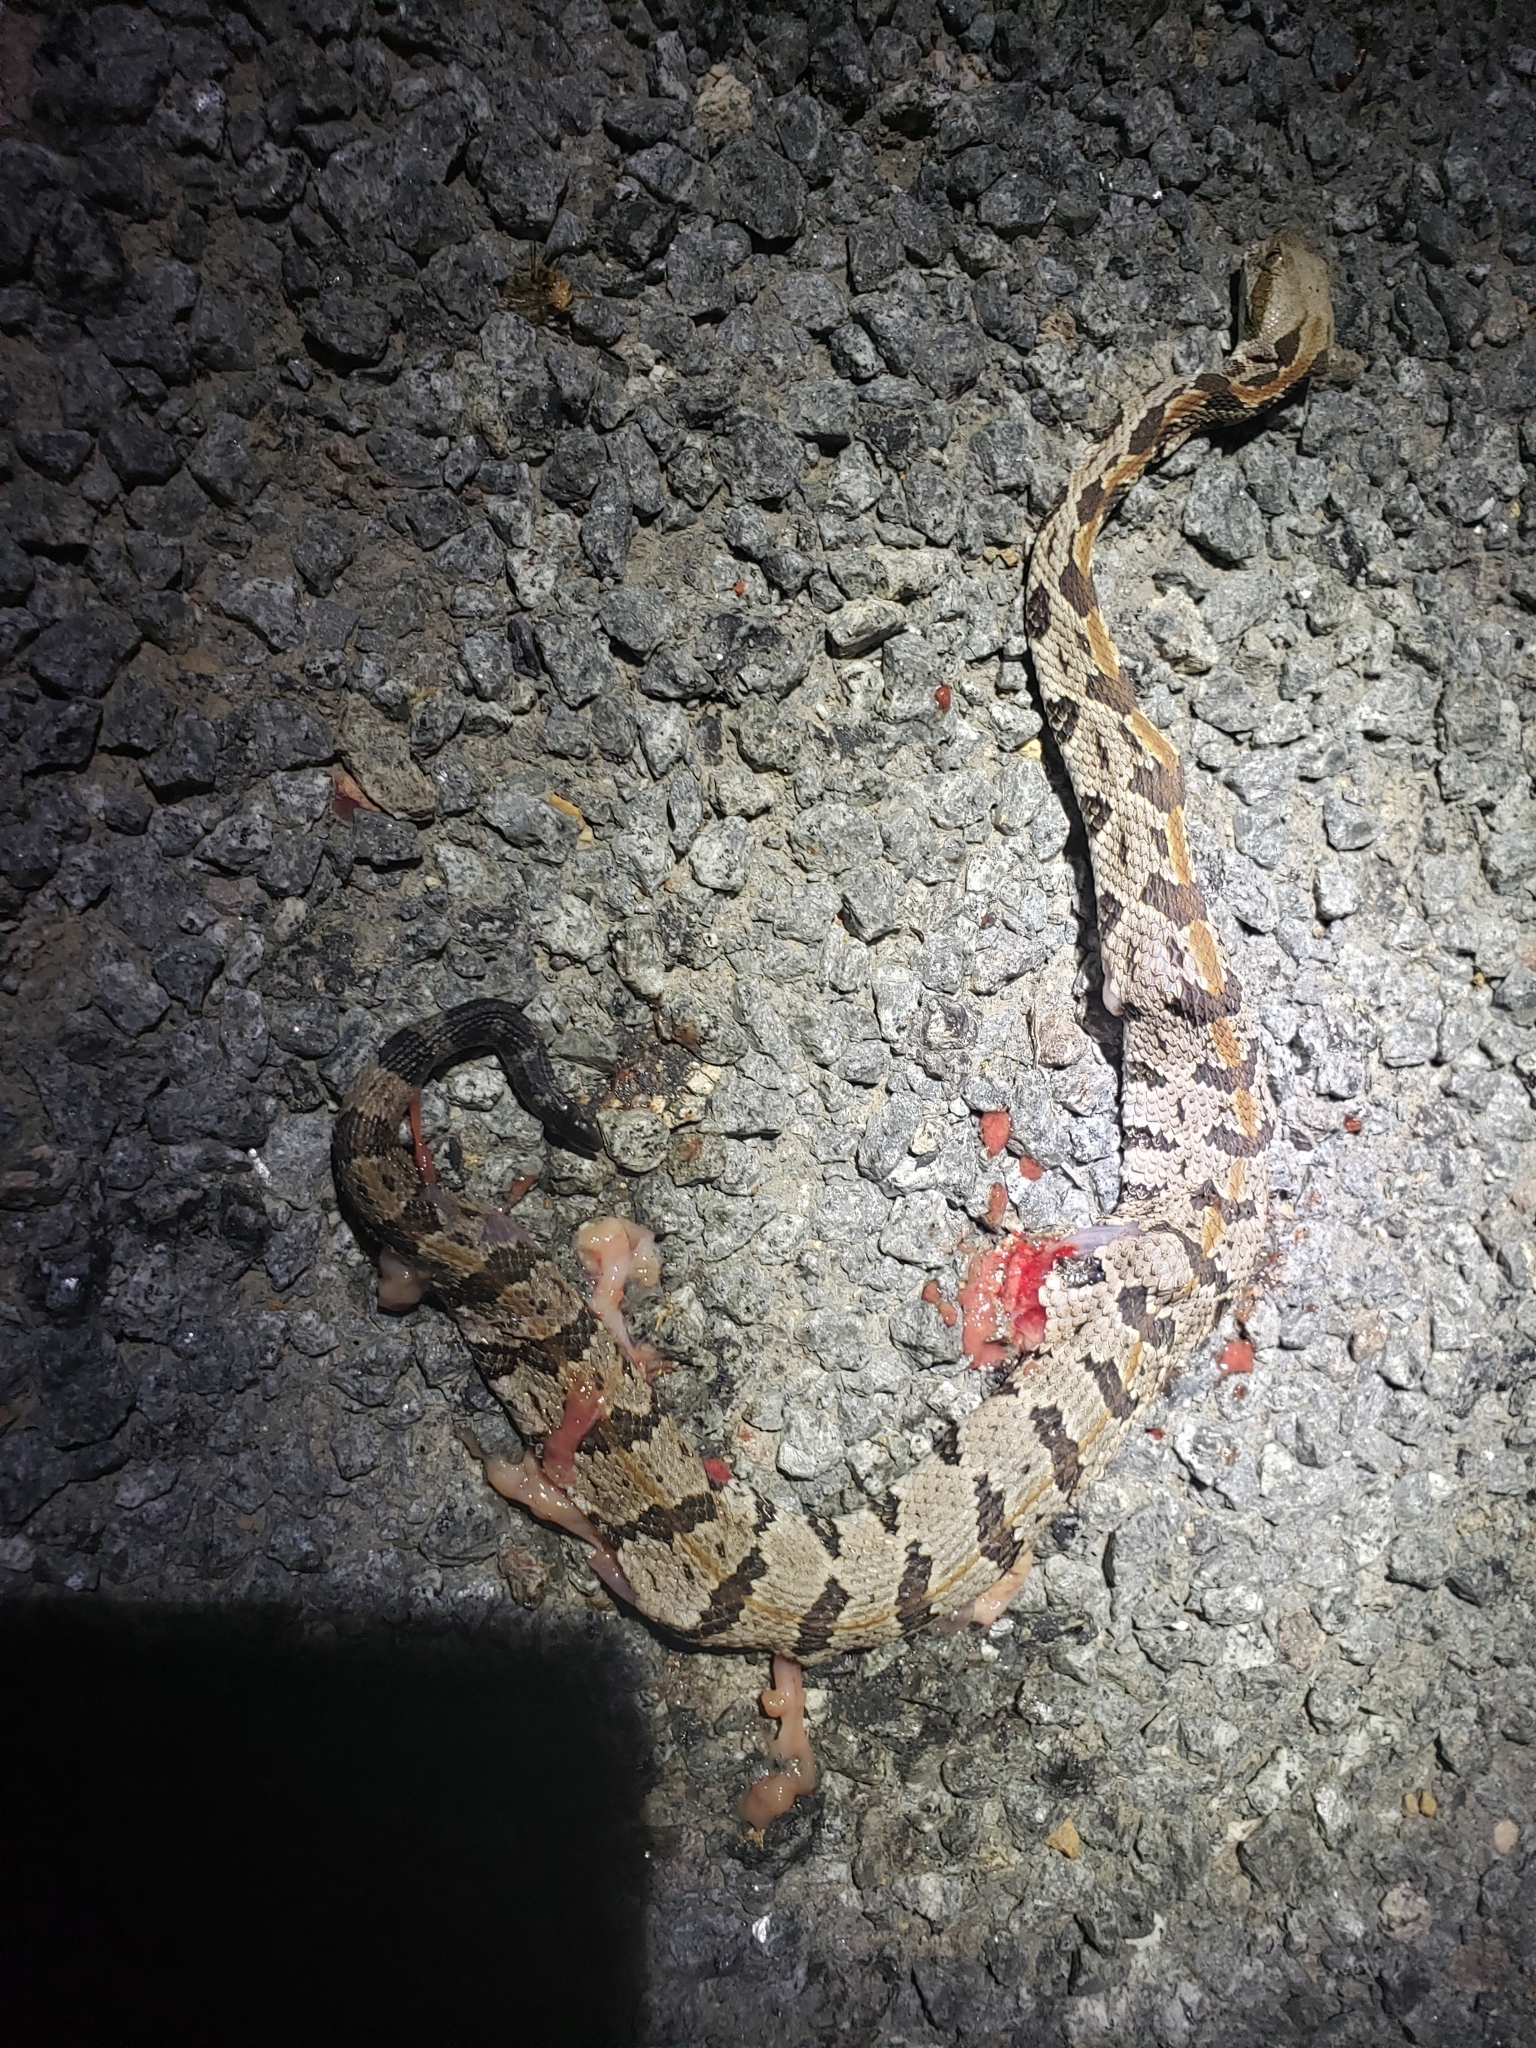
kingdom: Animalia
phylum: Chordata
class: Squamata
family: Viperidae
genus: Crotalus
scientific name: Crotalus horridus
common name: Timber rattlesnake
